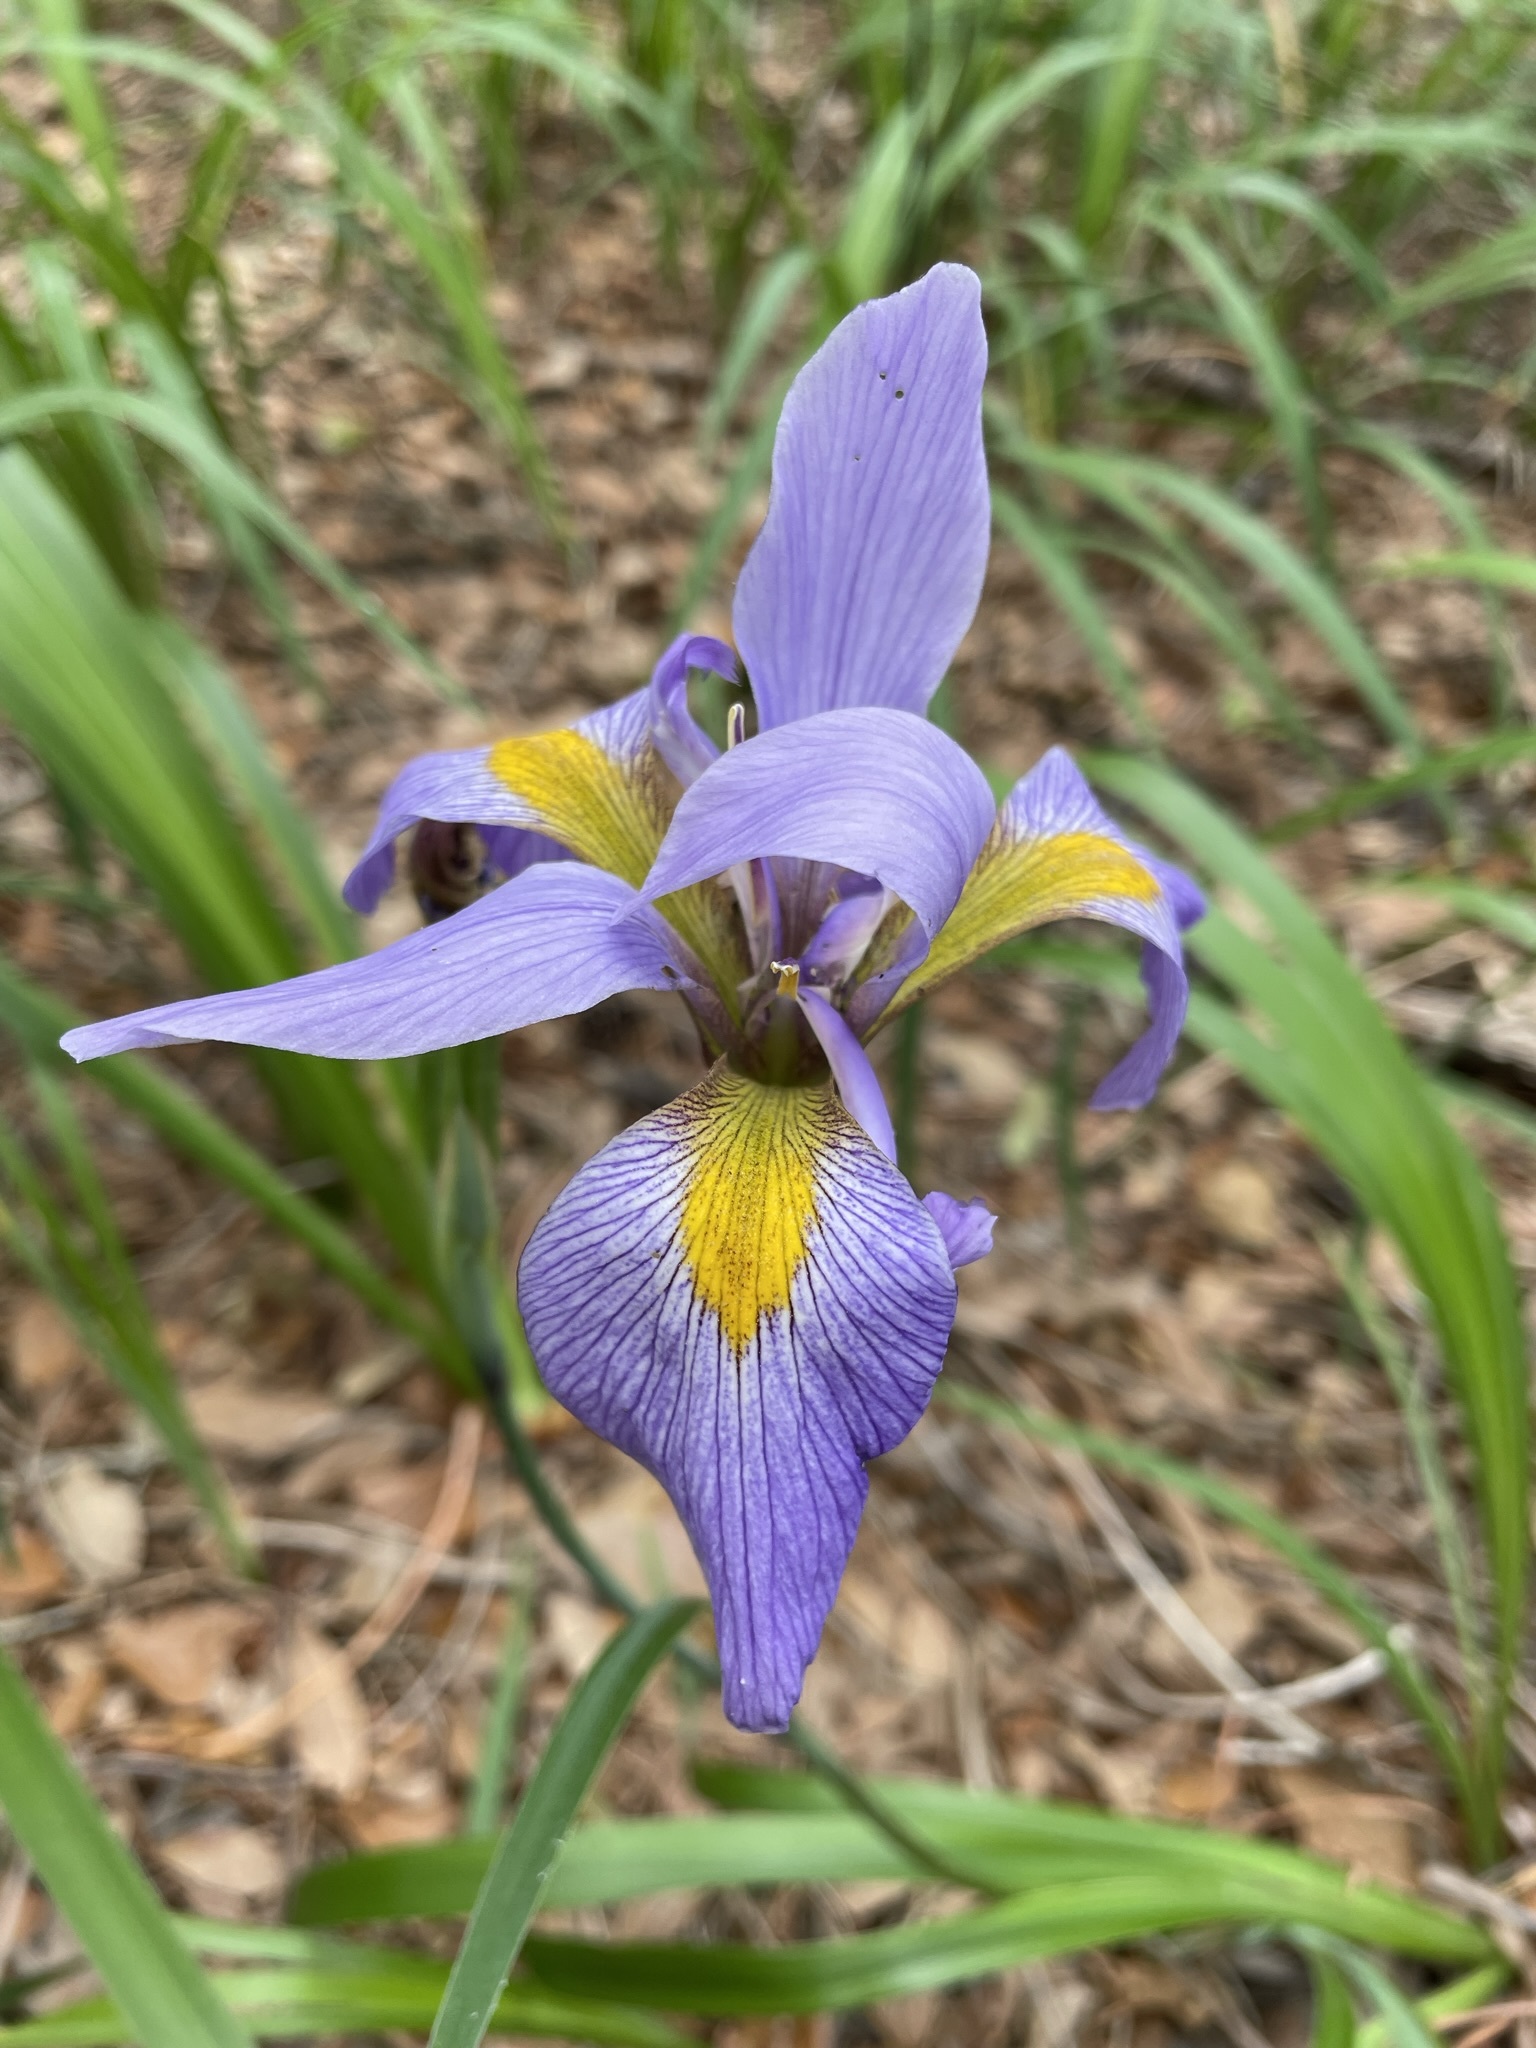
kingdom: Plantae
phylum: Tracheophyta
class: Liliopsida
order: Asparagales
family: Iridaceae
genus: Iris
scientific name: Iris virginica
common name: Southern blue flag
